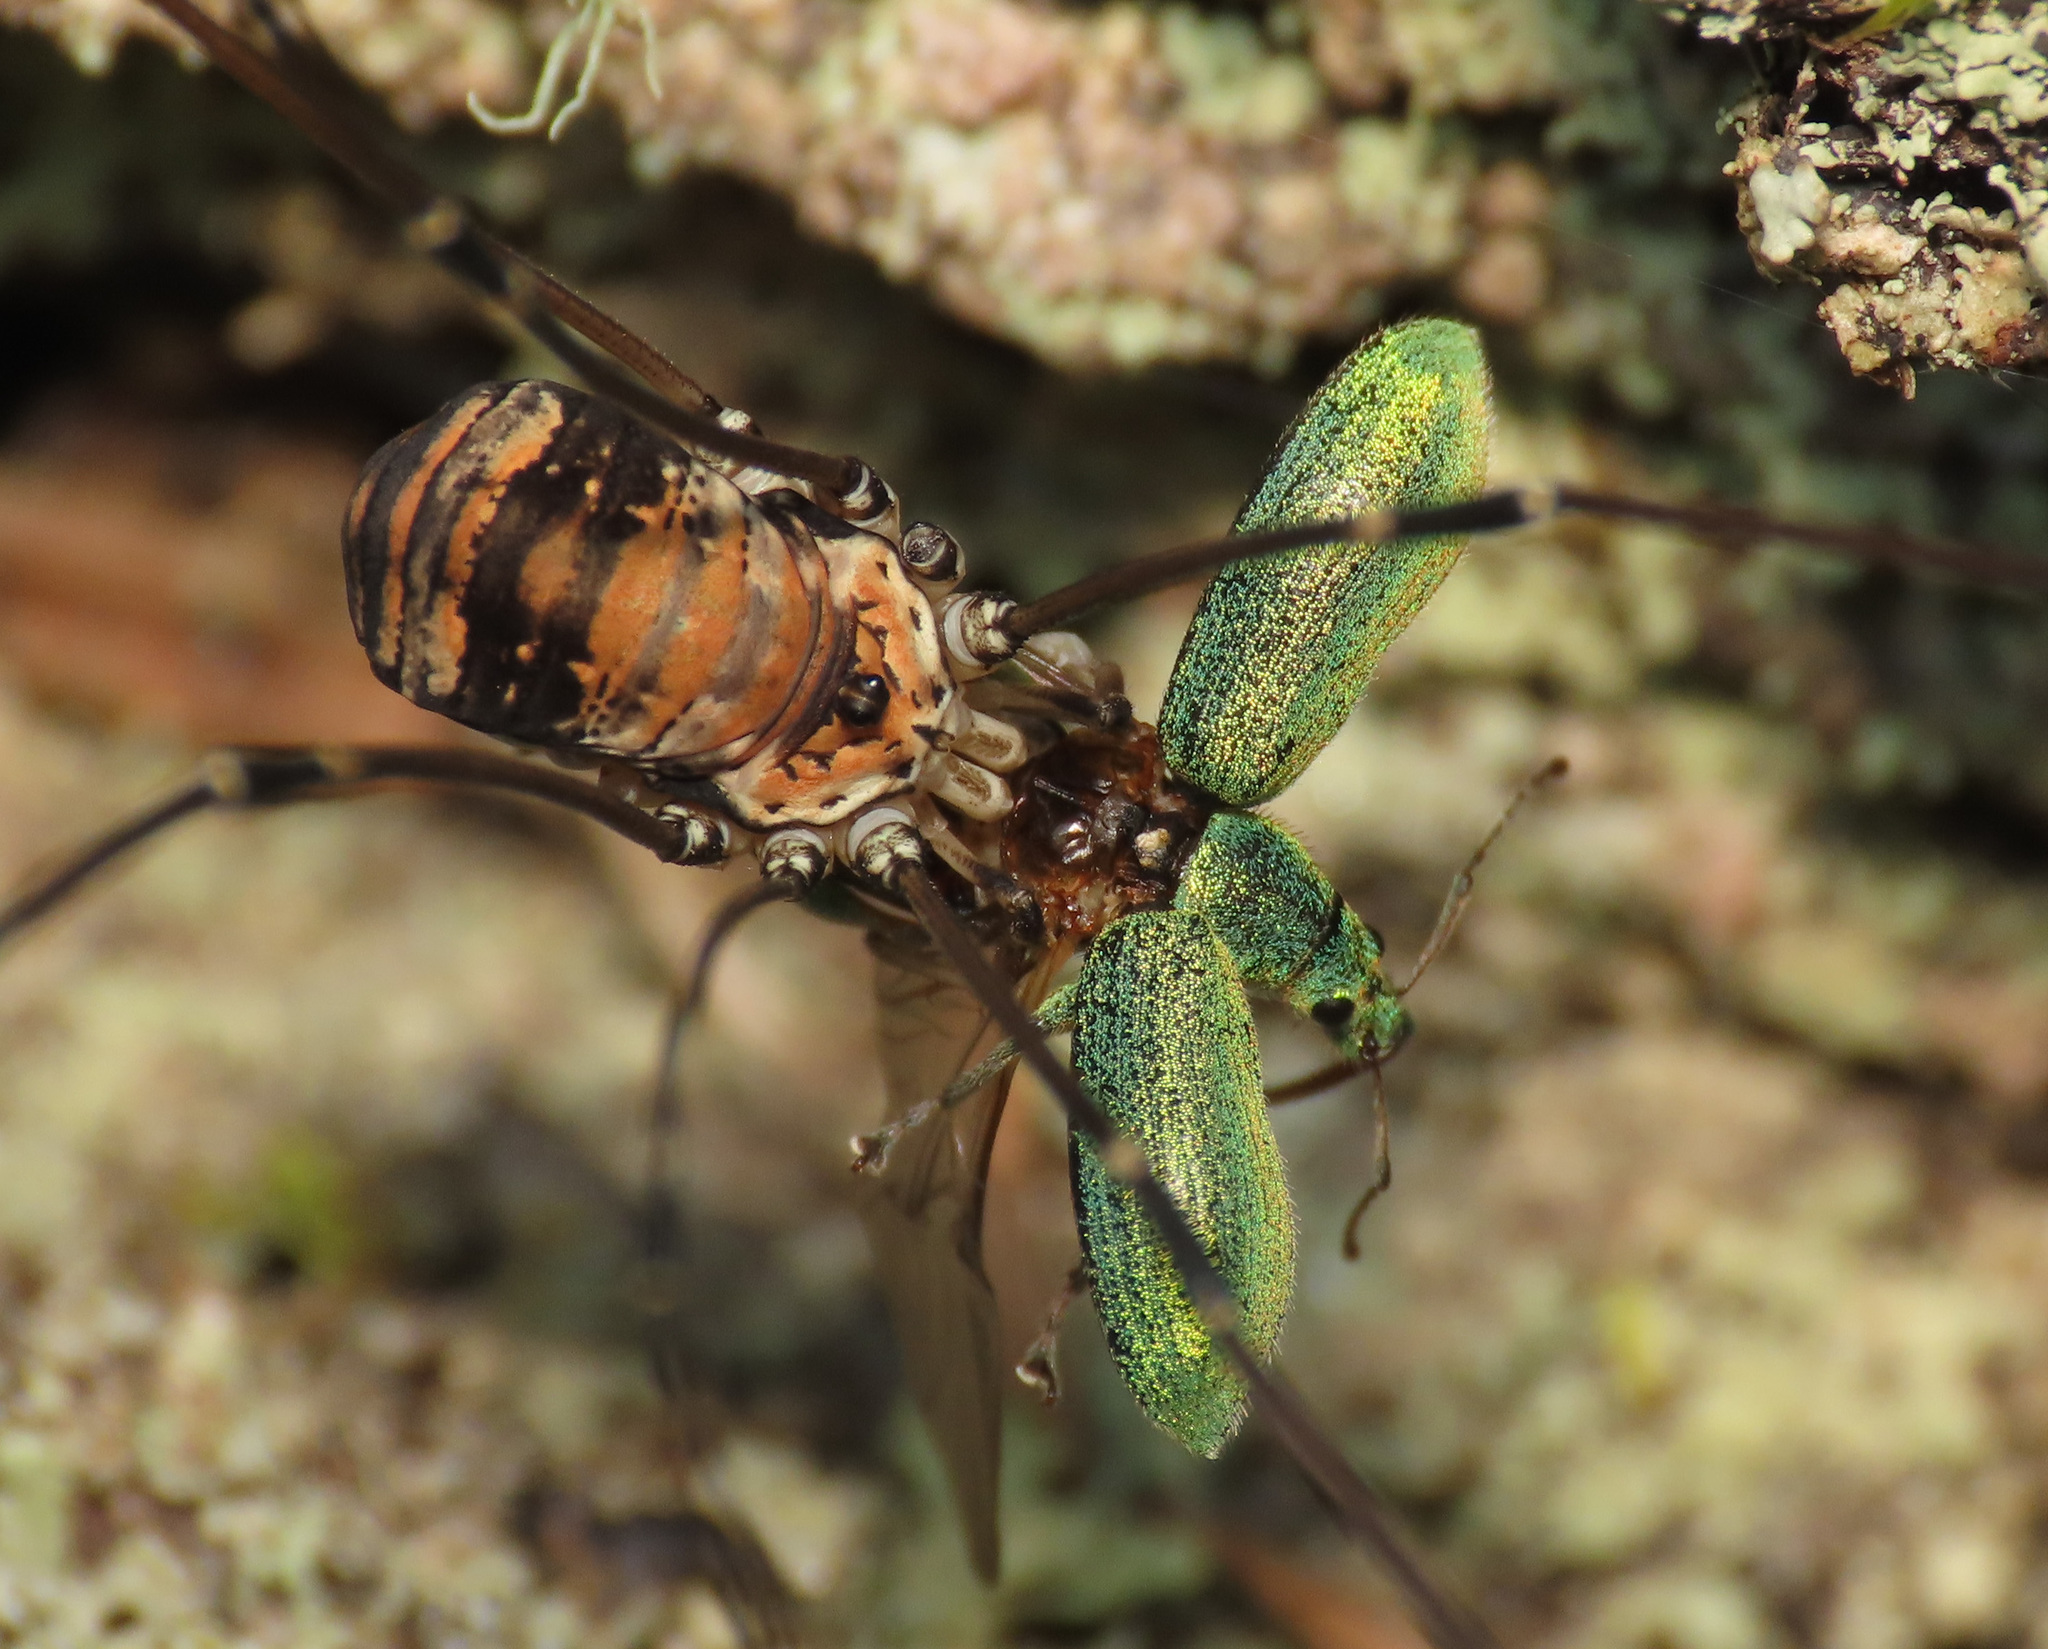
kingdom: Animalia
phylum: Arthropoda
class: Insecta
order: Coleoptera
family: Curculionidae
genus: Phyllobius
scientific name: Phyllobius arborator
